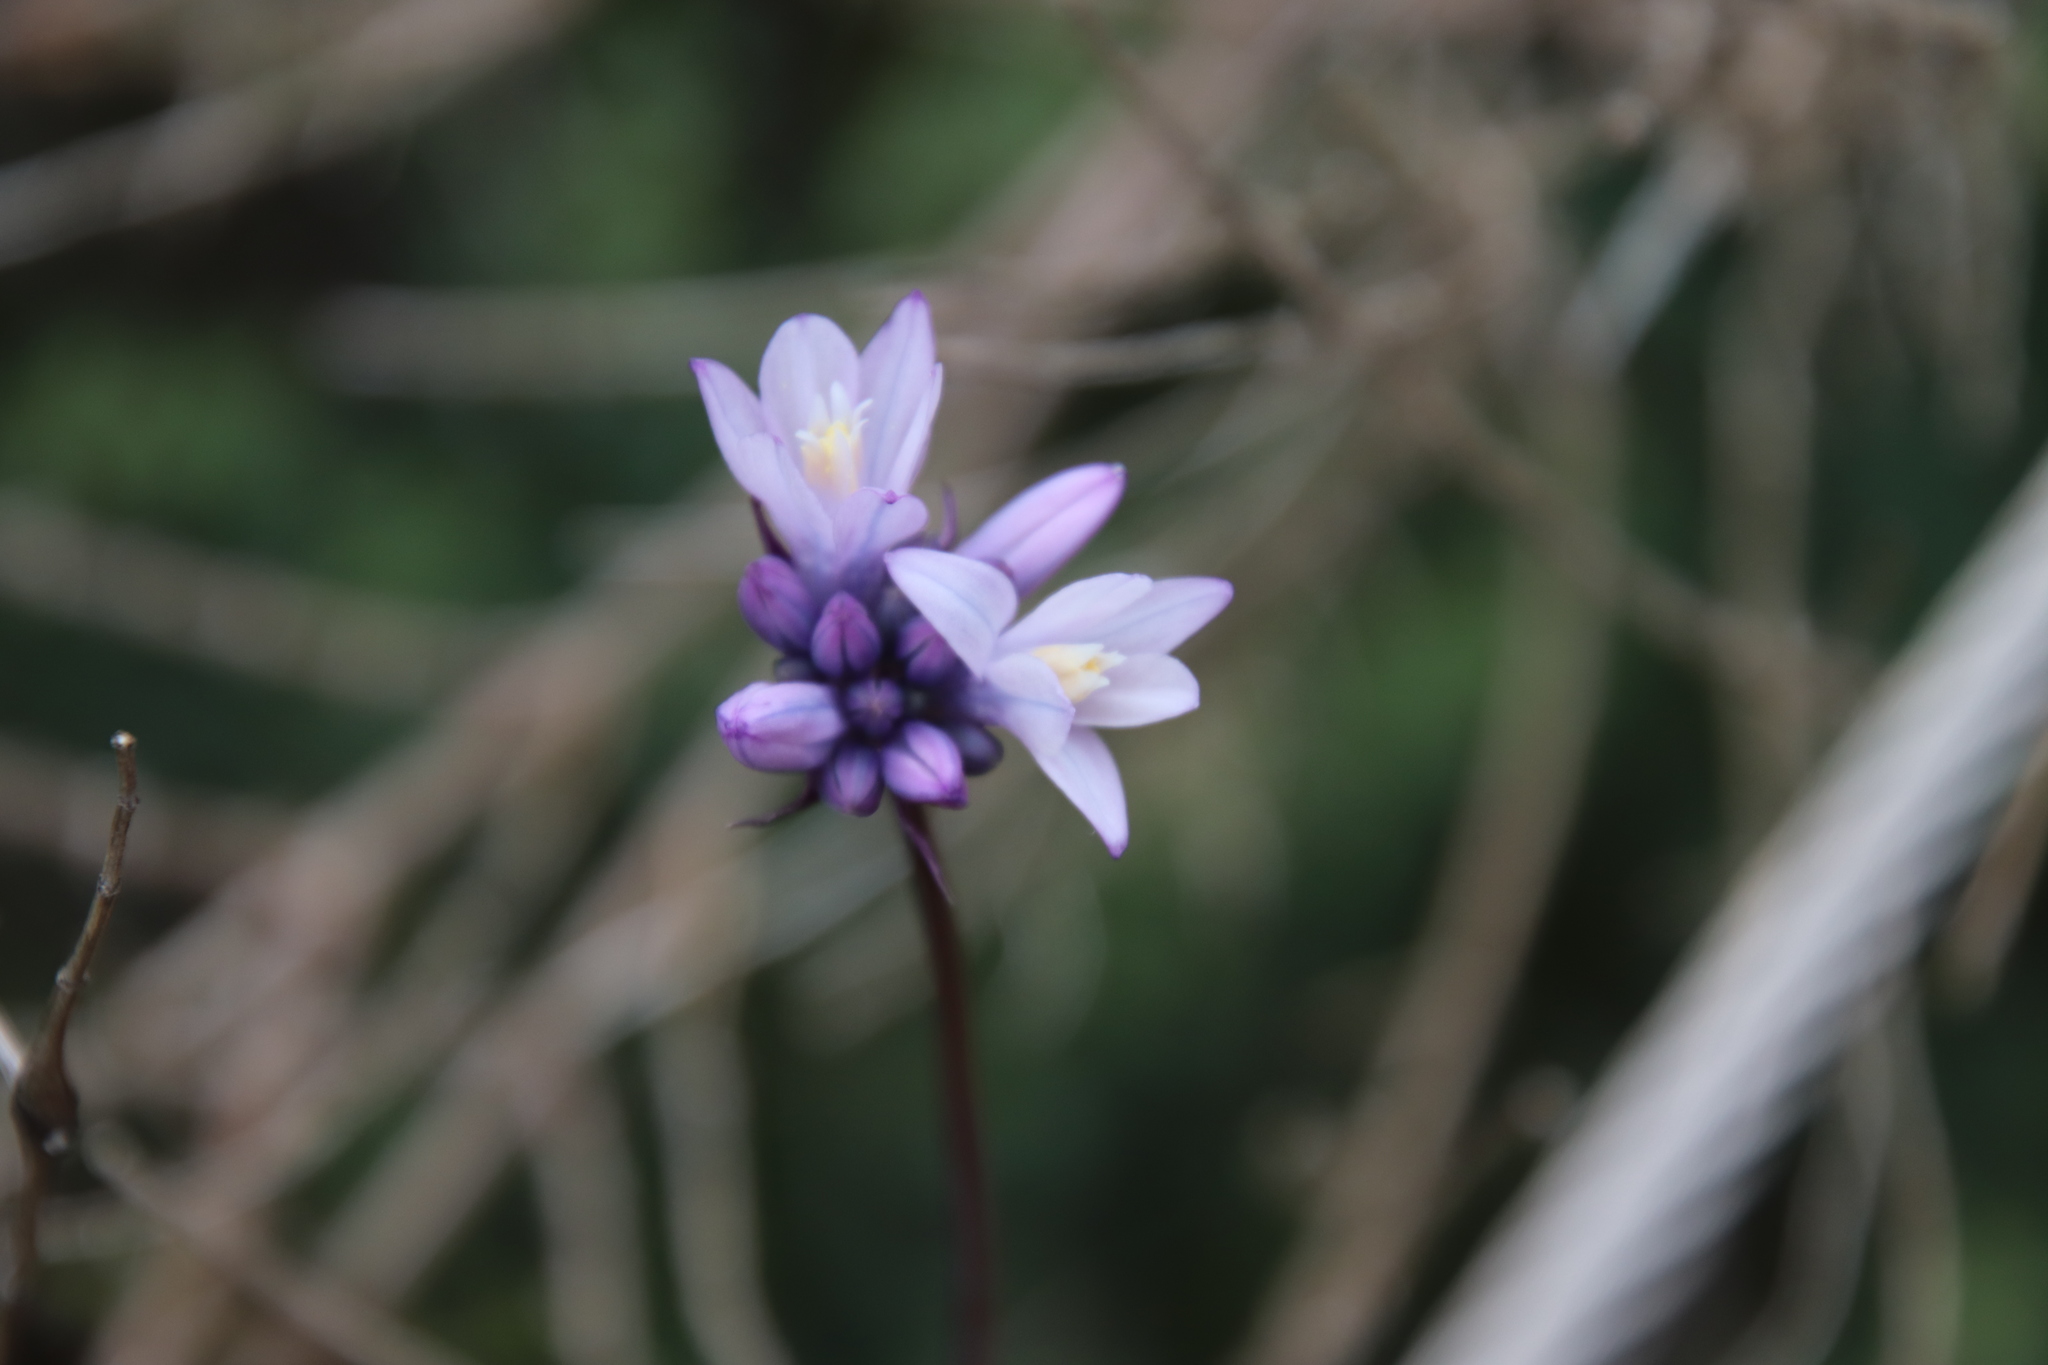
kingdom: Plantae
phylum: Tracheophyta
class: Liliopsida
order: Asparagales
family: Asparagaceae
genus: Dipterostemon
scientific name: Dipterostemon capitatus
